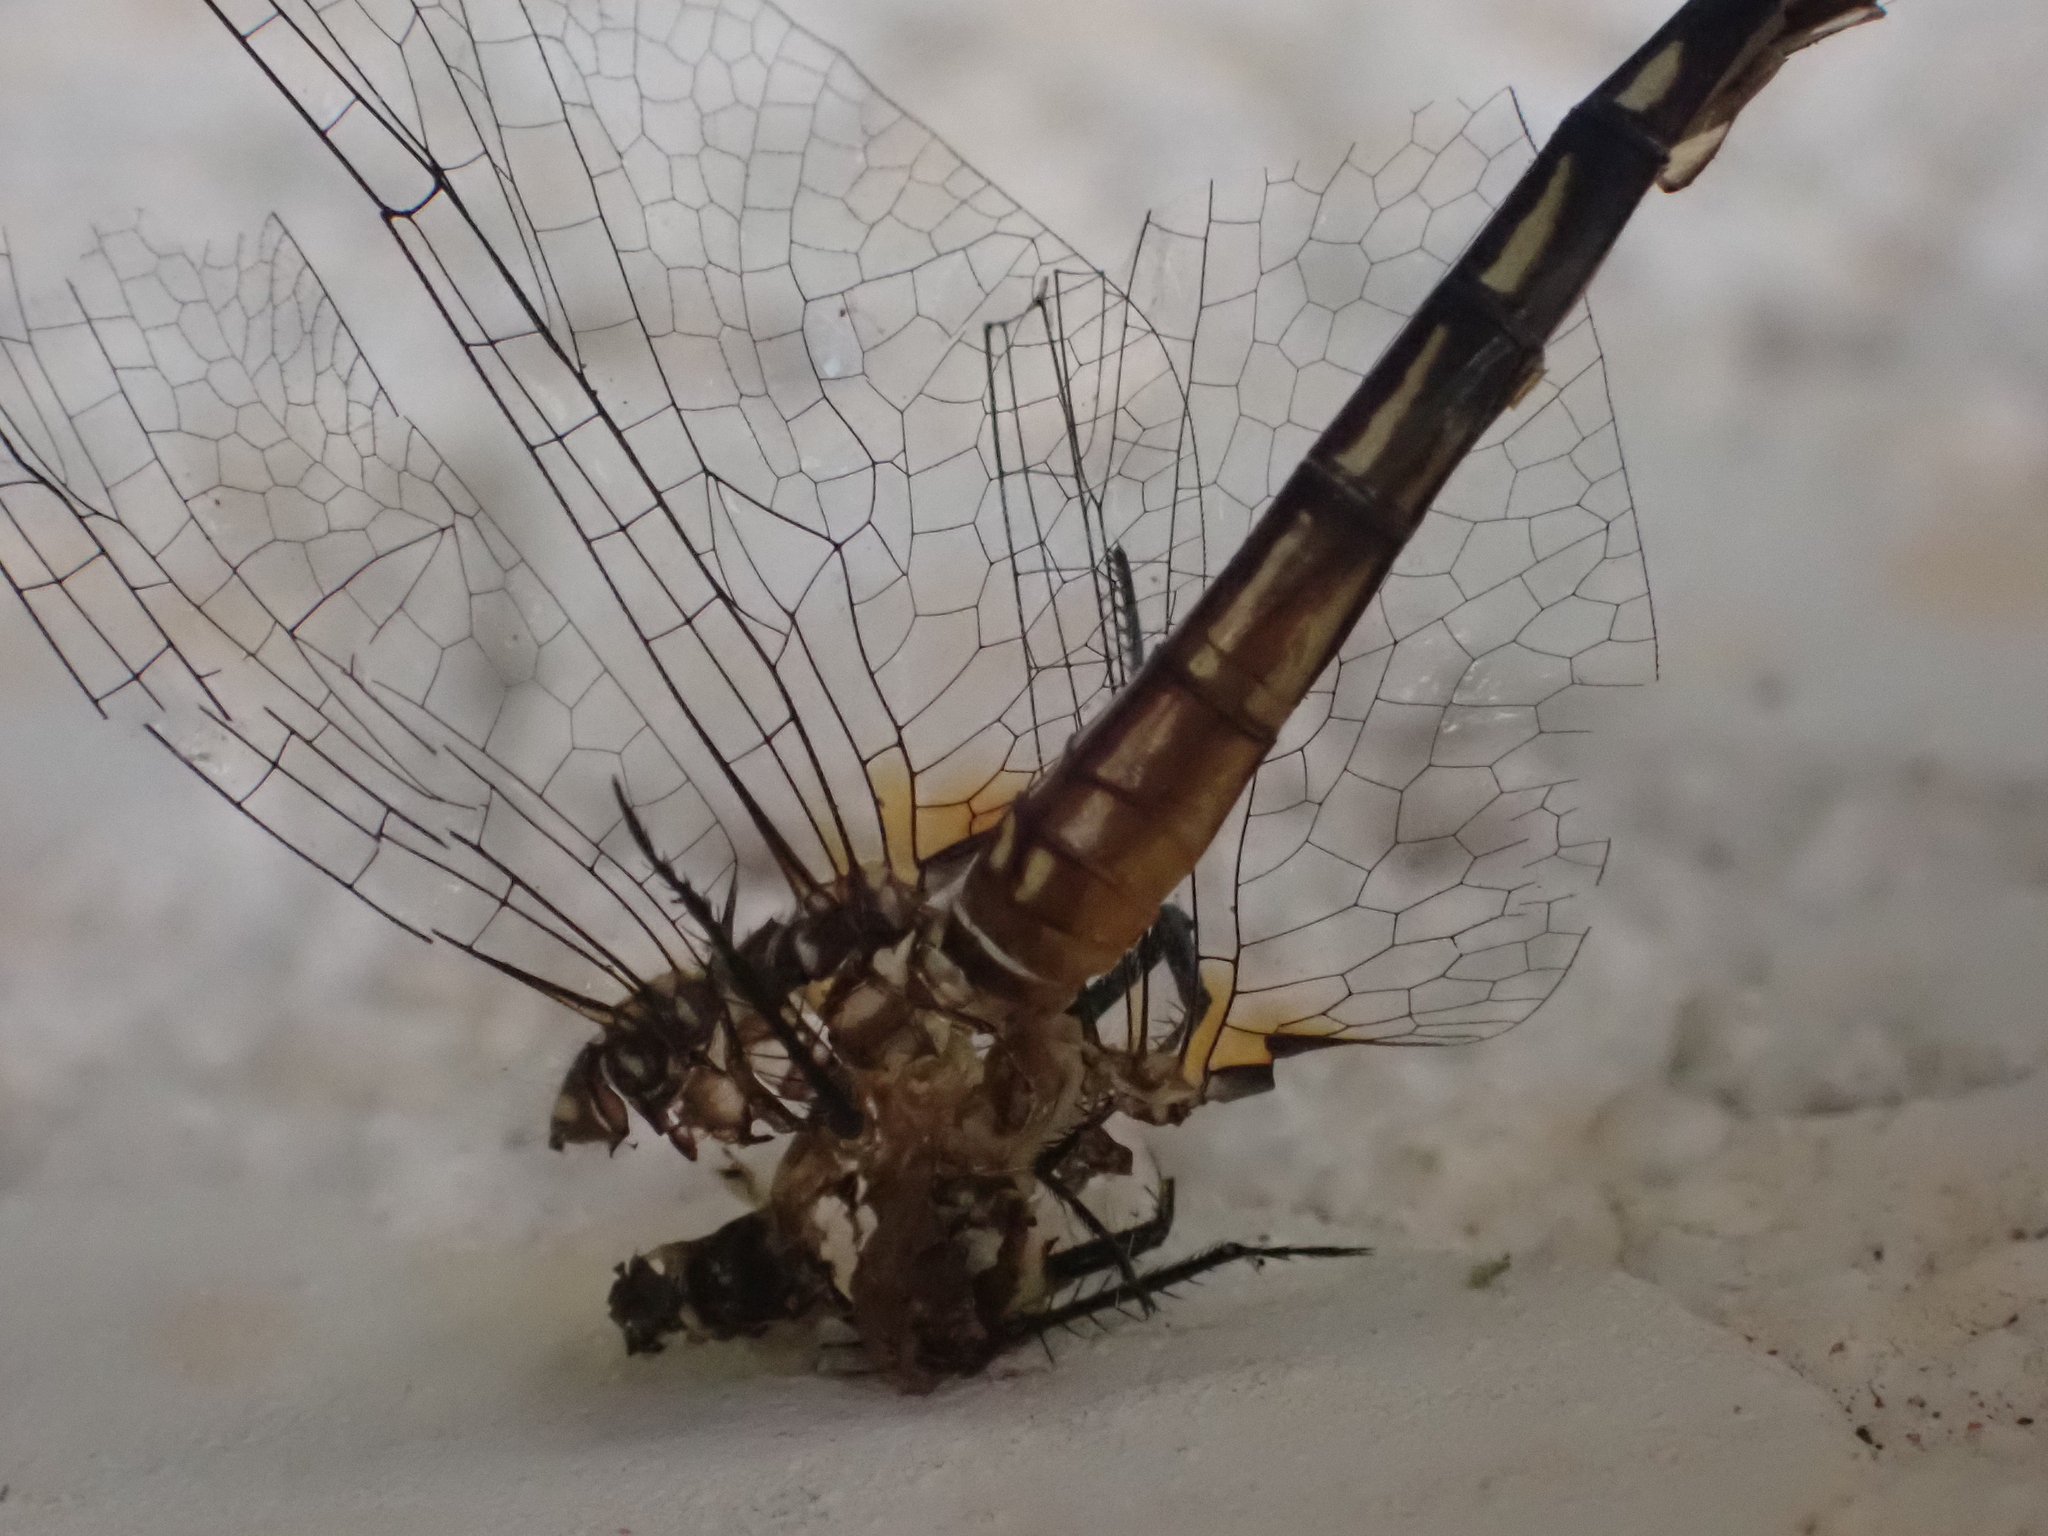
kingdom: Animalia
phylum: Arthropoda
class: Insecta
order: Odonata
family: Libellulidae
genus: Pachydiplax
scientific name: Pachydiplax longipennis
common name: Blue dasher
